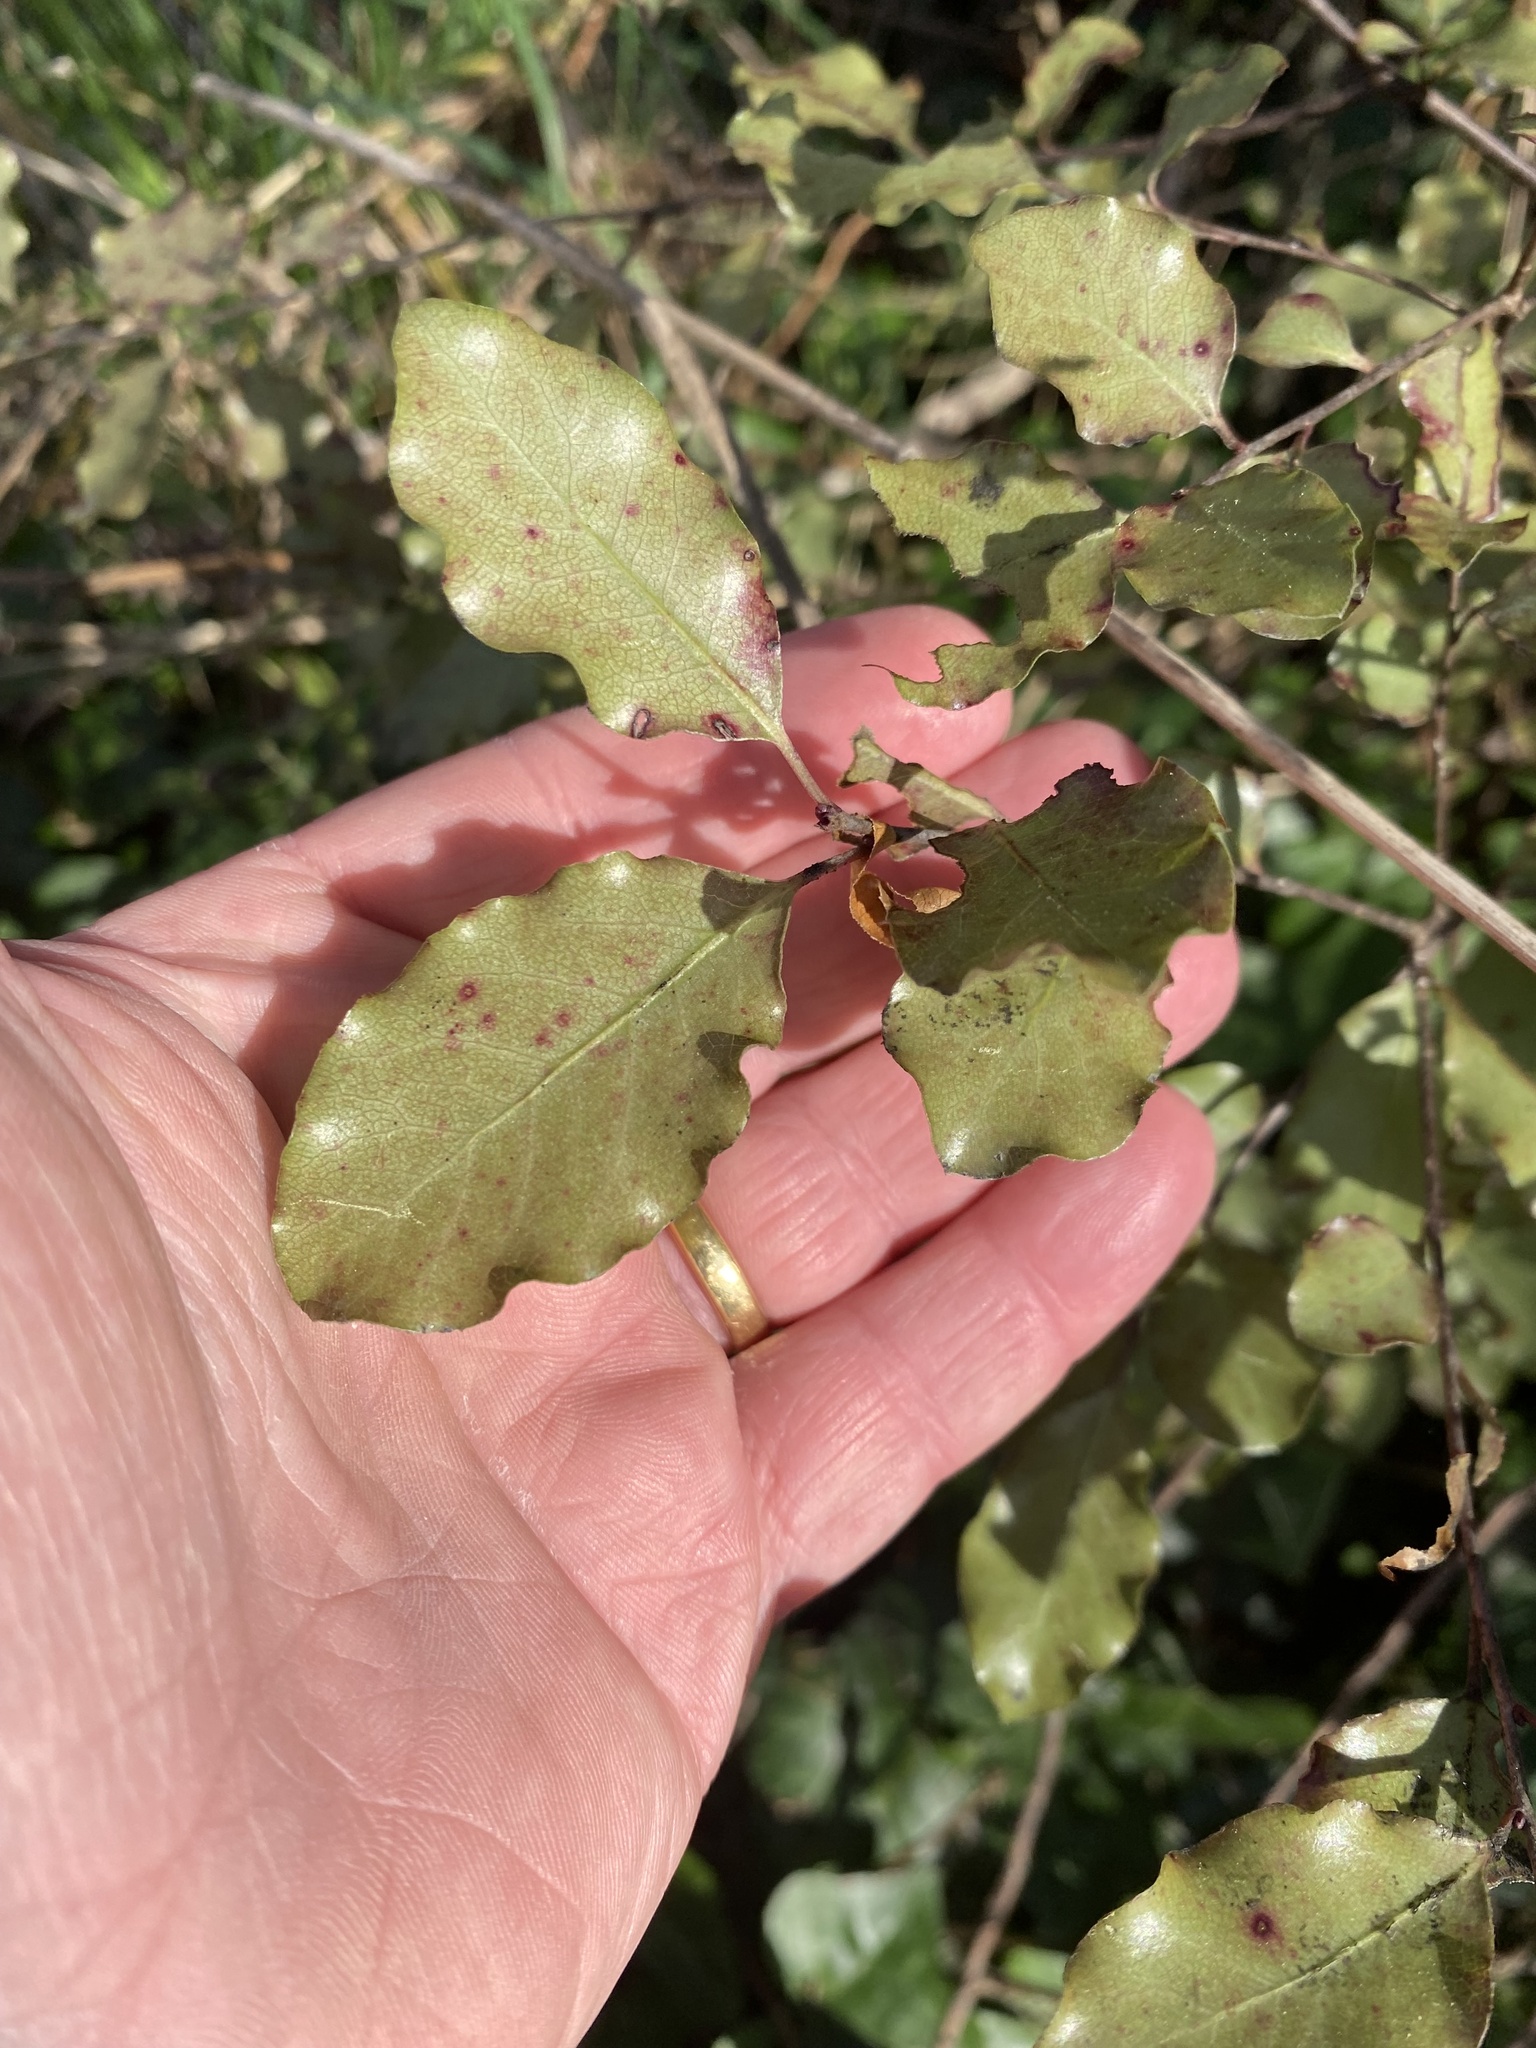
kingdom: Plantae
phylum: Tracheophyta
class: Magnoliopsida
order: Apiales
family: Pittosporaceae
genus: Pittosporum
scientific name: Pittosporum tenuifolium
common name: Kohuhu
